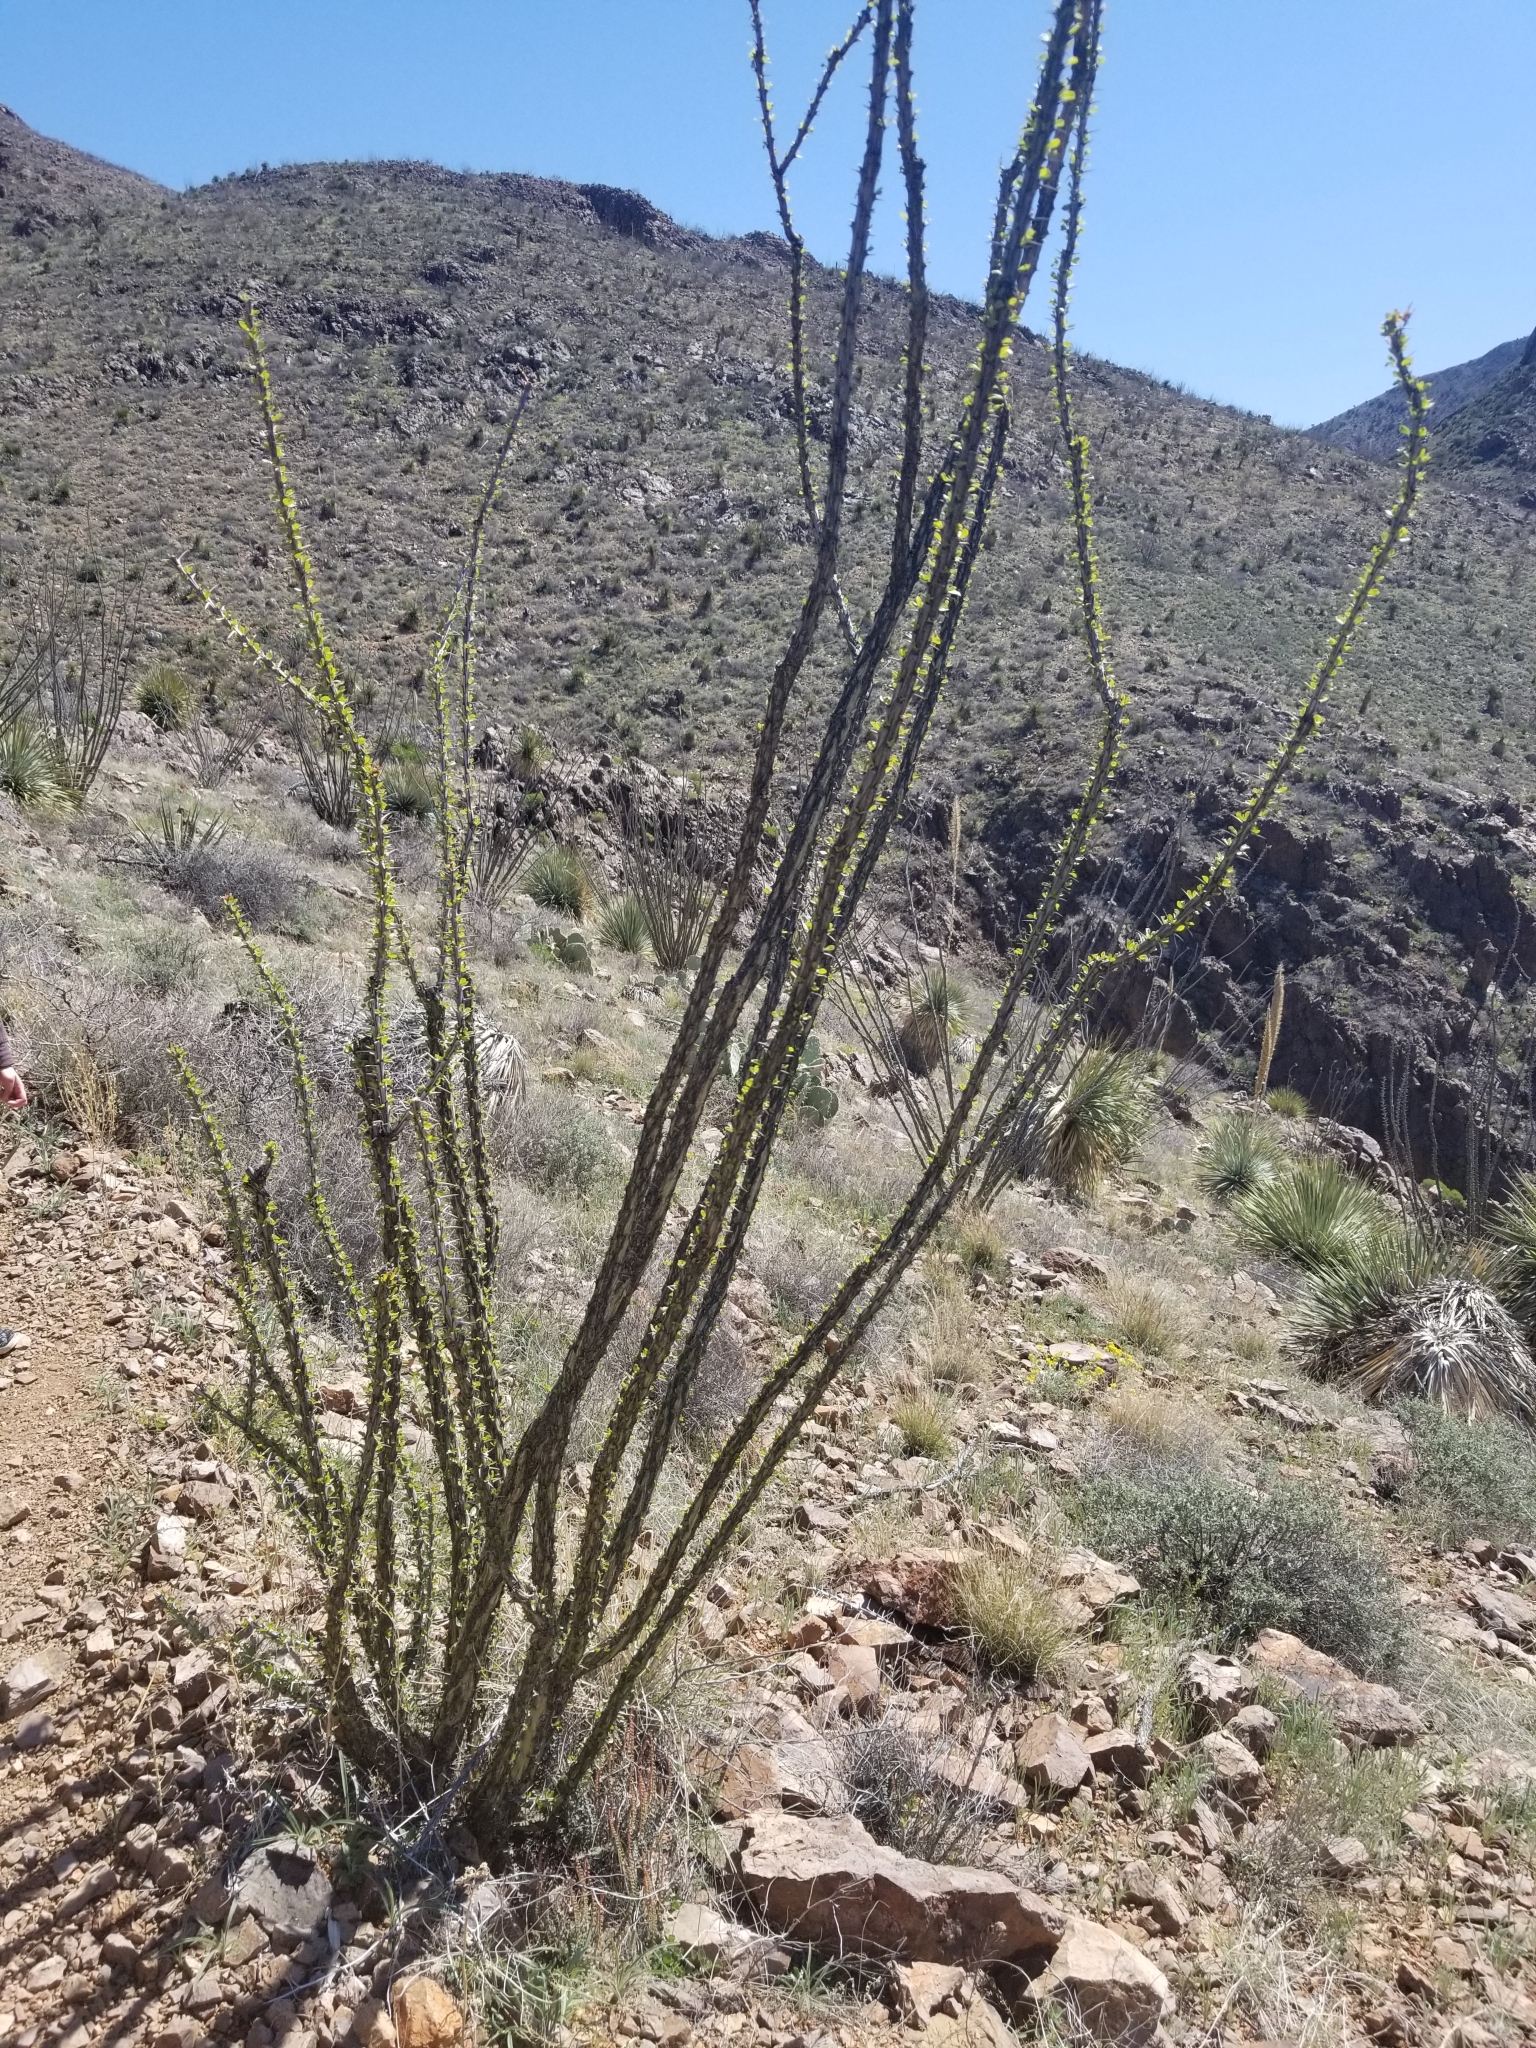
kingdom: Plantae
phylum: Tracheophyta
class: Magnoliopsida
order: Ericales
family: Fouquieriaceae
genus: Fouquieria
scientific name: Fouquieria splendens
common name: Vine-cactus
